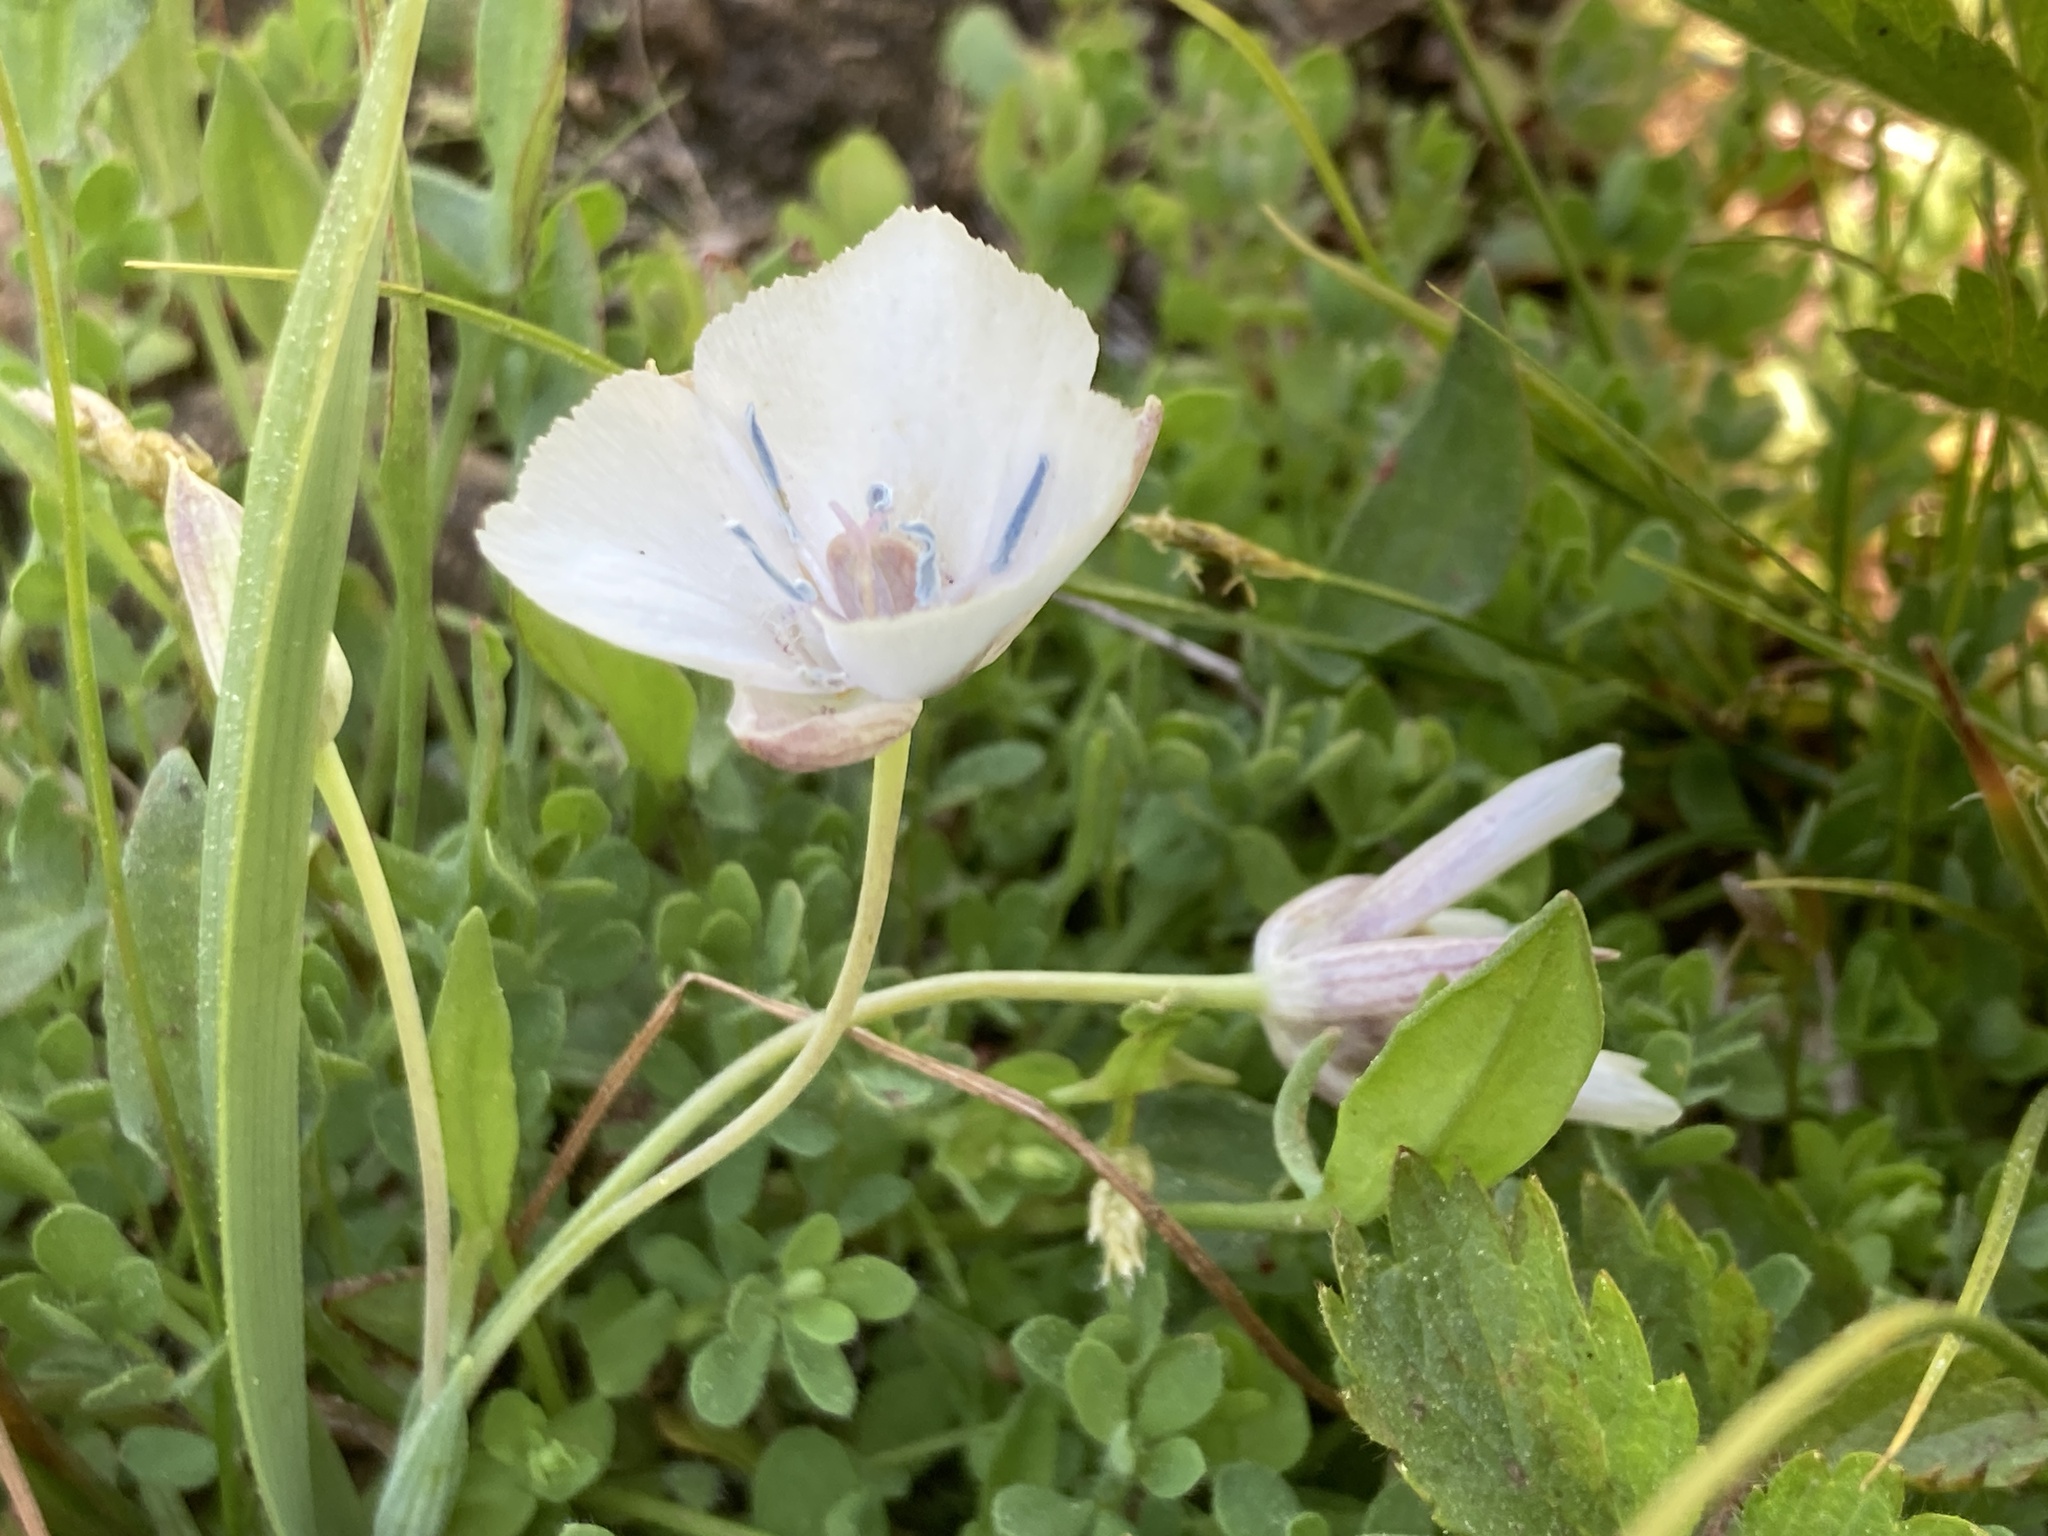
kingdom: Plantae
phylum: Tracheophyta
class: Liliopsida
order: Liliales
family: Liliaceae
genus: Calochortus
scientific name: Calochortus minimus
